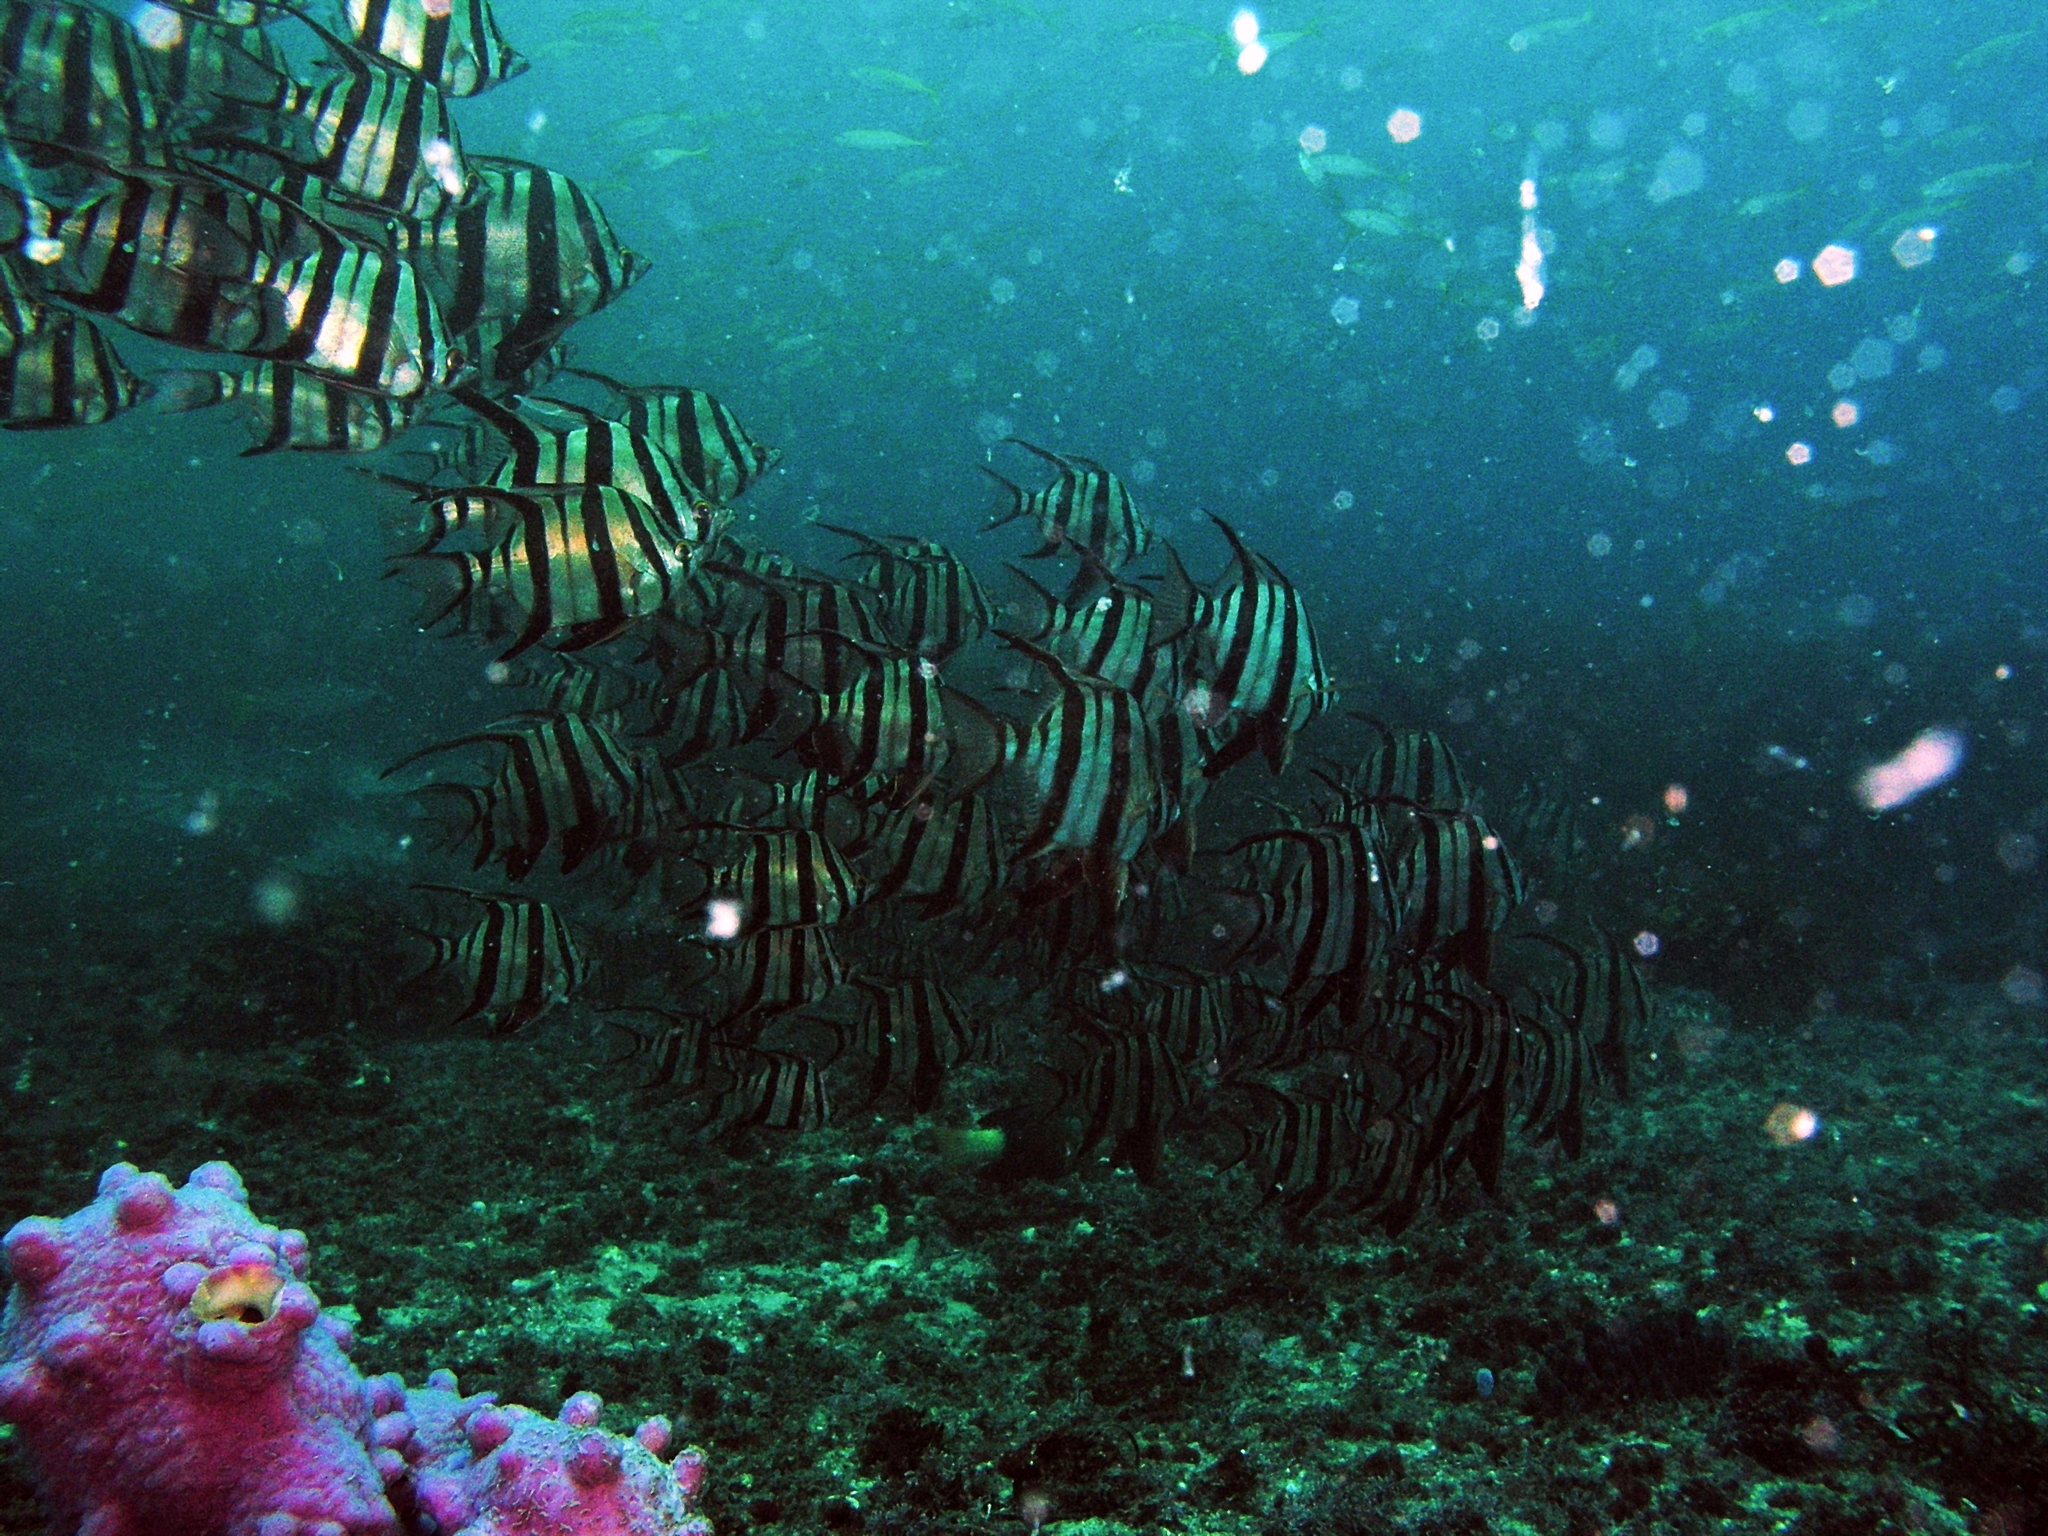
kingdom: Animalia
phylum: Chordata
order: Perciformes
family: Enoplosidae
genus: Enoplosus
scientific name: Enoplosus armatus
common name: Old wife
